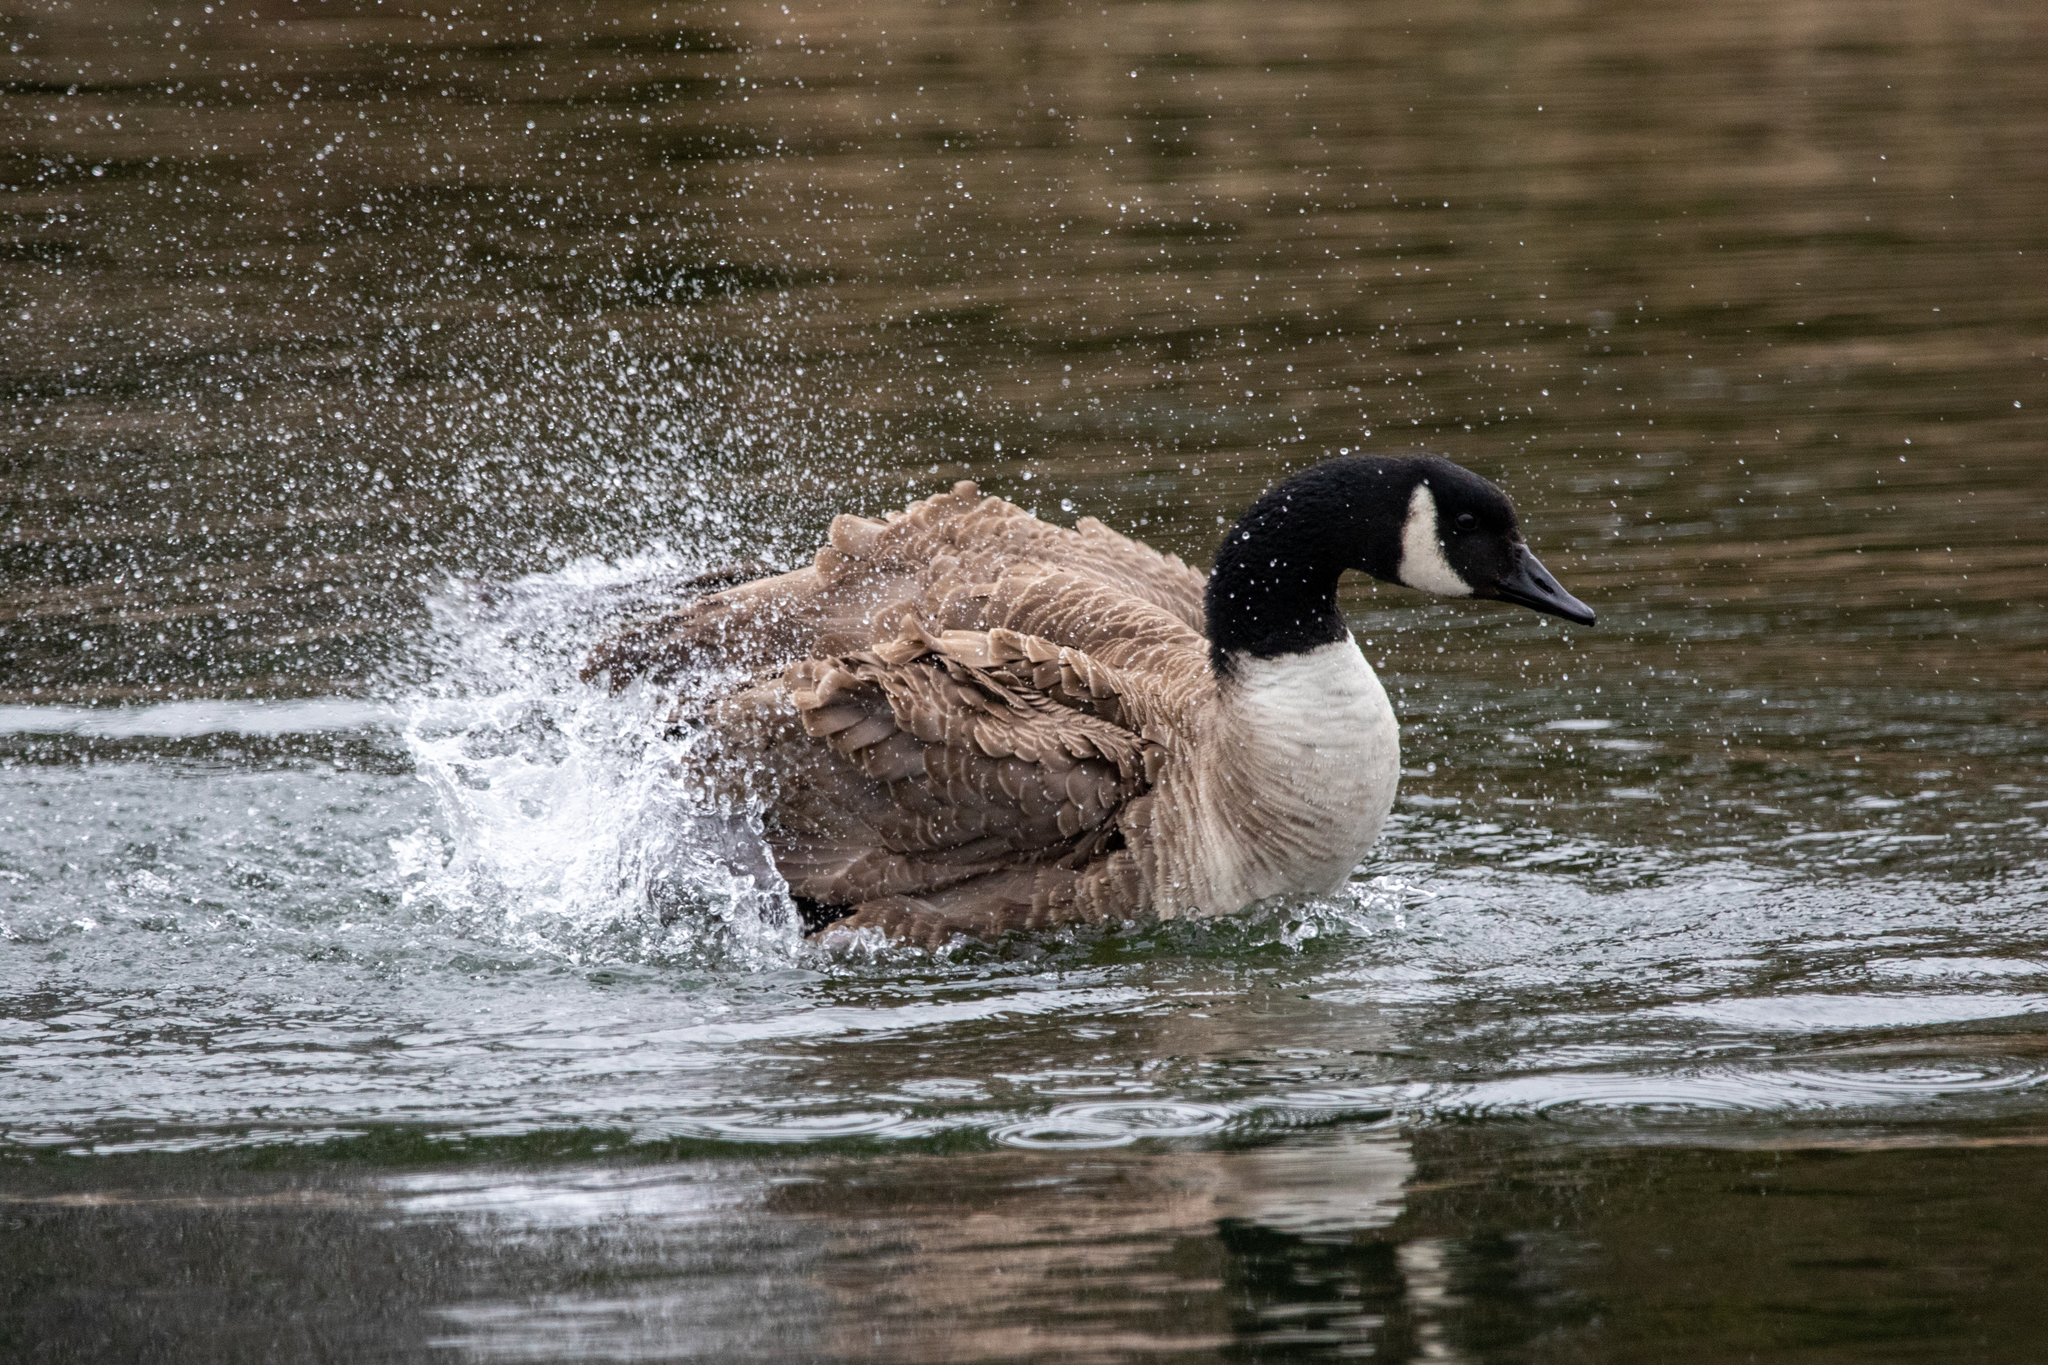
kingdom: Animalia
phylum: Chordata
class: Aves
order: Anseriformes
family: Anatidae
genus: Branta
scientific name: Branta canadensis
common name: Canada goose
